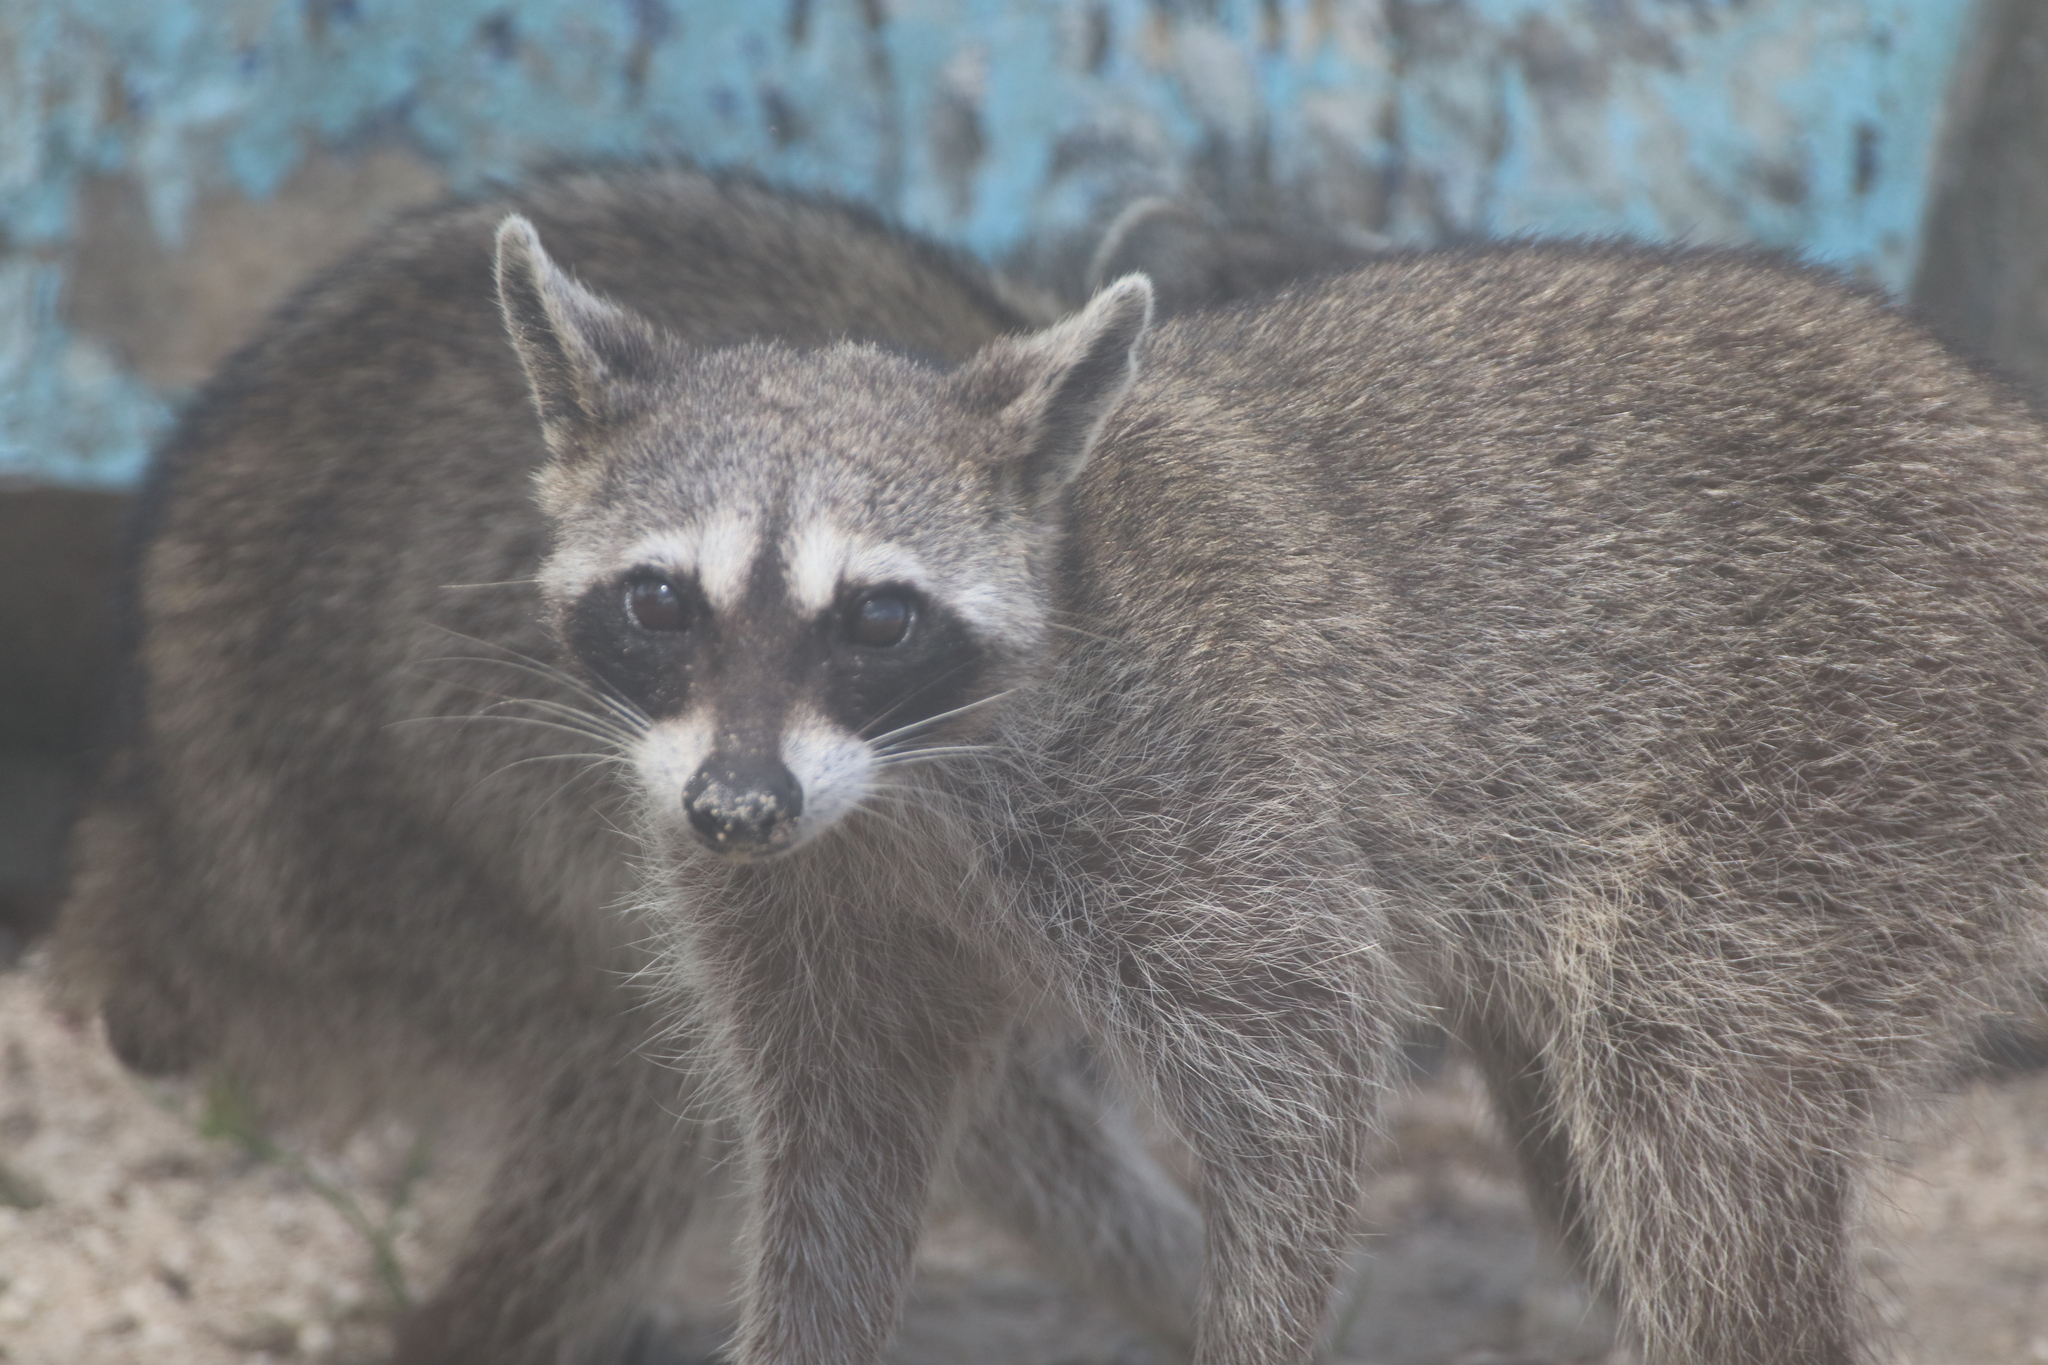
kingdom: Animalia
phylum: Chordata
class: Mammalia
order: Carnivora
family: Procyonidae
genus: Procyon
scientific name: Procyon pygmaeus
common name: Cozumel raccoon
